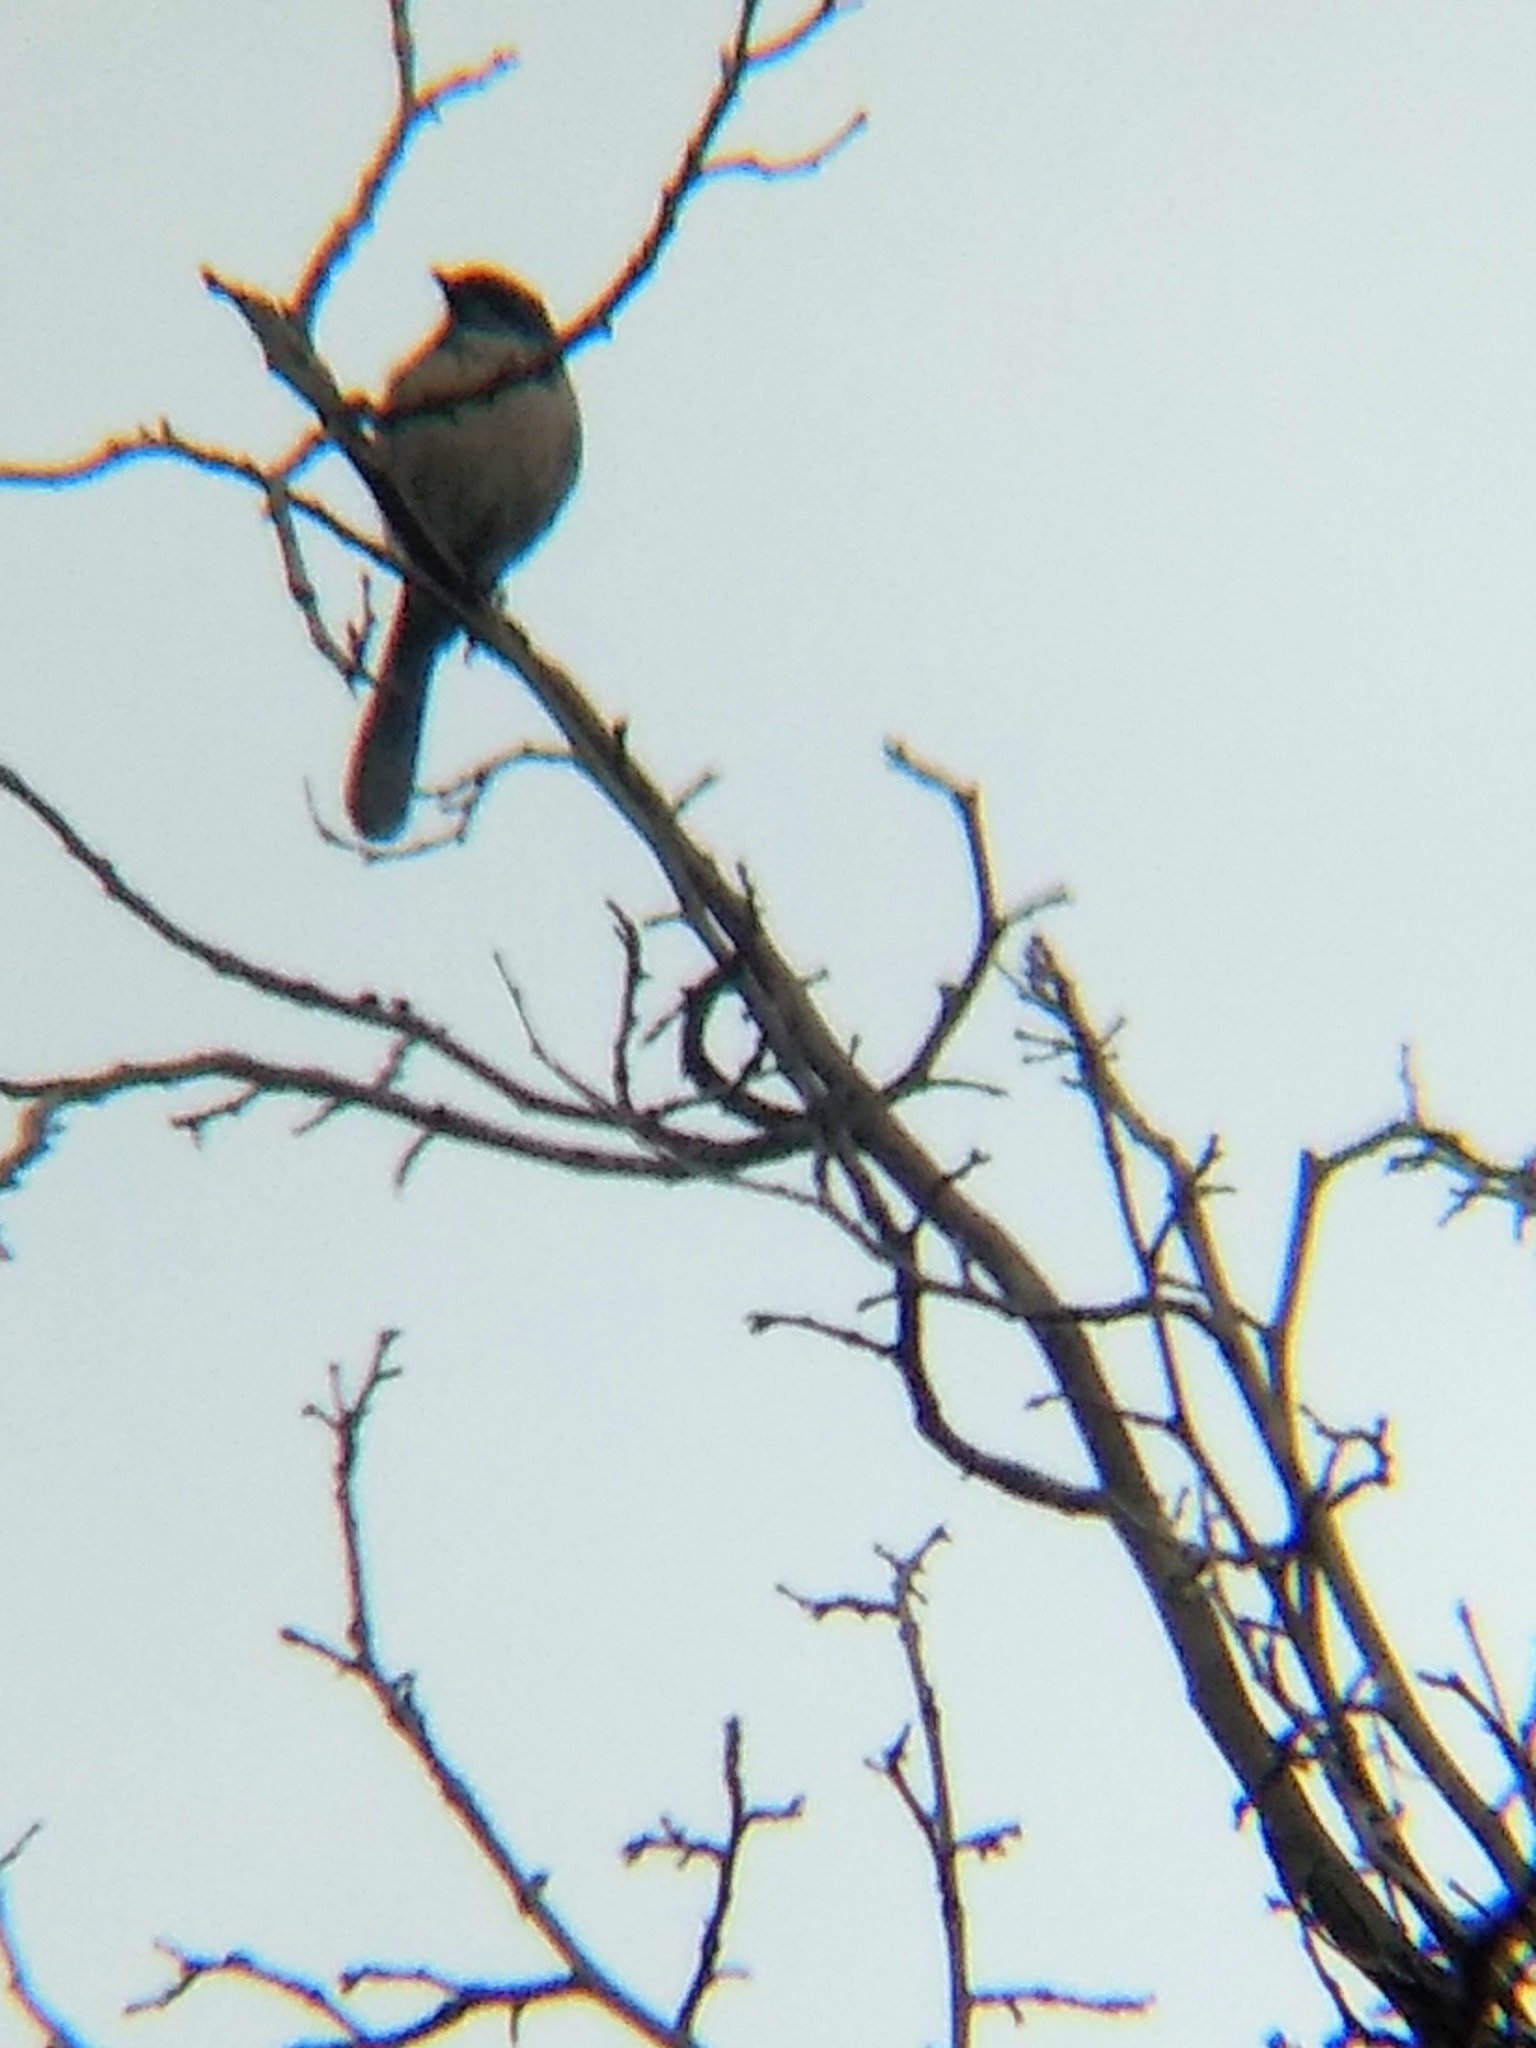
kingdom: Animalia
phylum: Chordata
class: Aves
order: Passeriformes
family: Corvidae
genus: Aphelocoma
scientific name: Aphelocoma californica
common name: California scrub-jay
